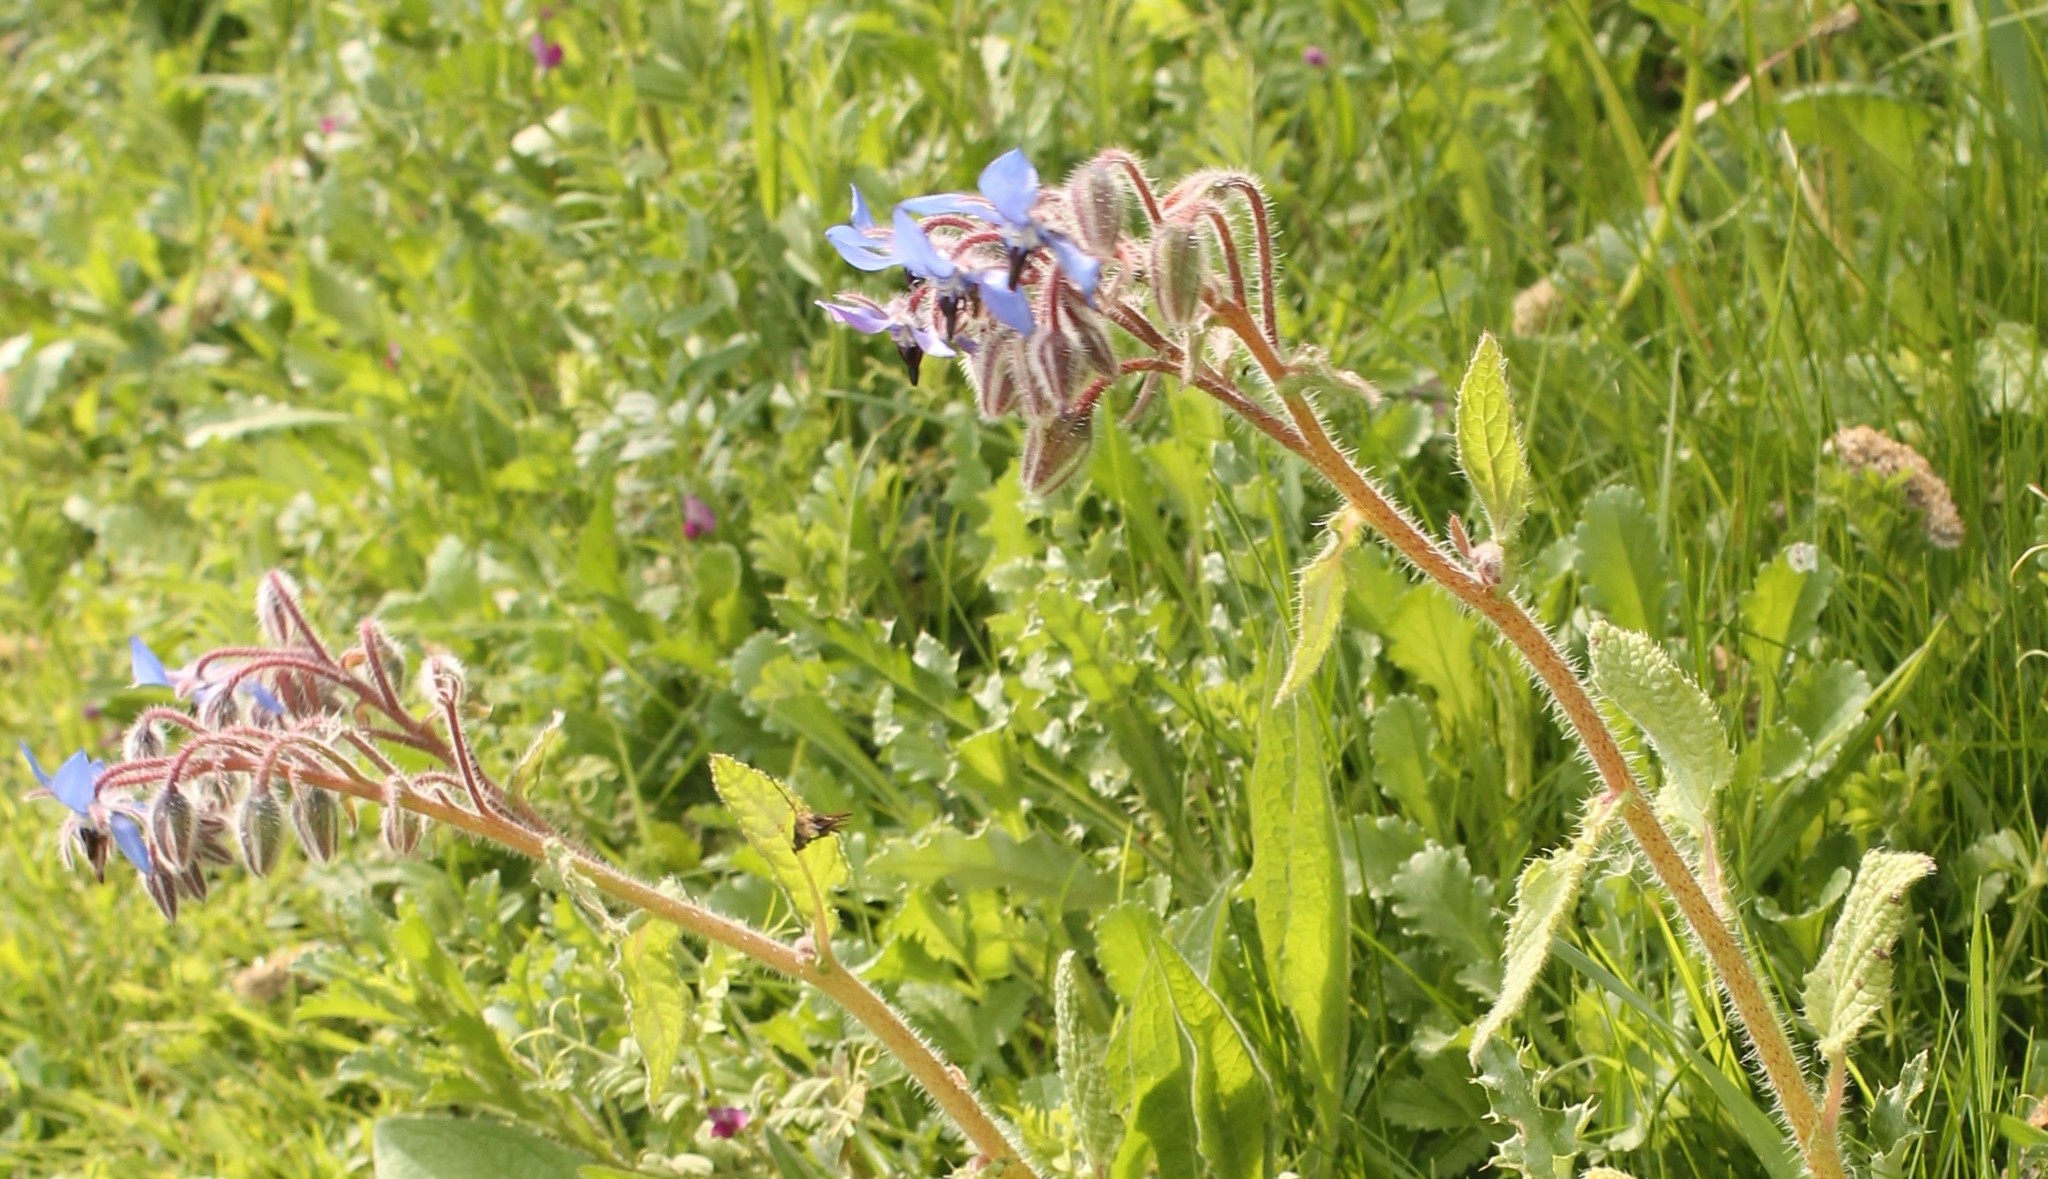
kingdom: Plantae
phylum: Tracheophyta
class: Magnoliopsida
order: Boraginales
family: Boraginaceae
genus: Borago
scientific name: Borago officinalis
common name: Borage
